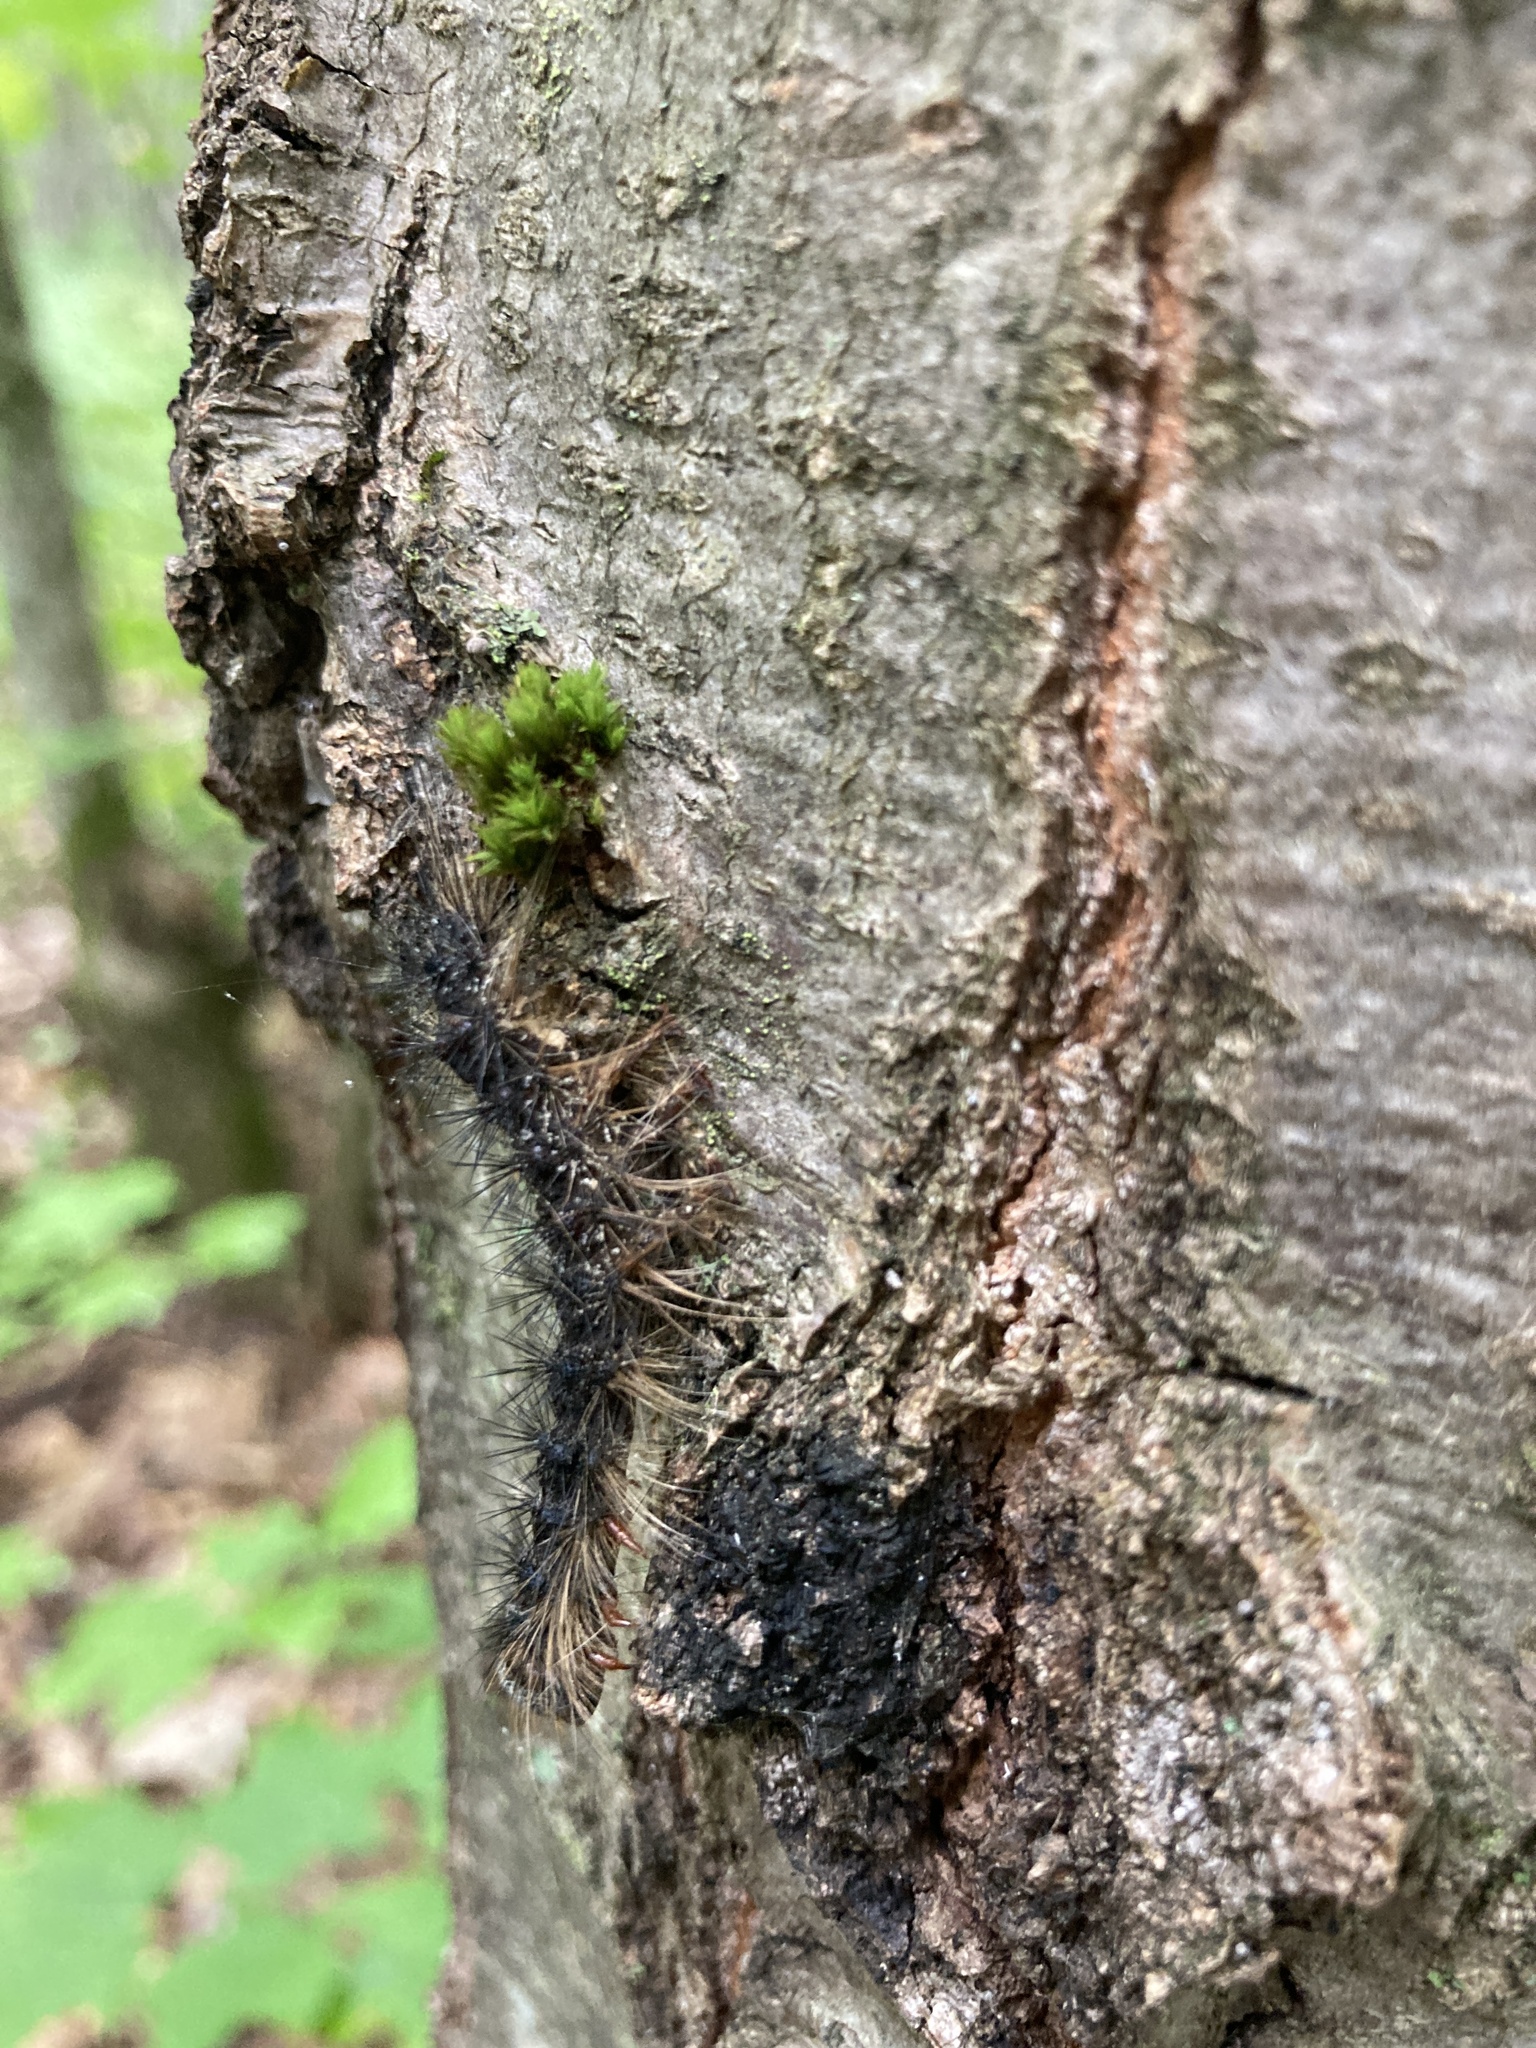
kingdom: Animalia
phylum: Arthropoda
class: Insecta
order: Lepidoptera
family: Erebidae
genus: Lymantria
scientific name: Lymantria dispar
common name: Gypsy moth
